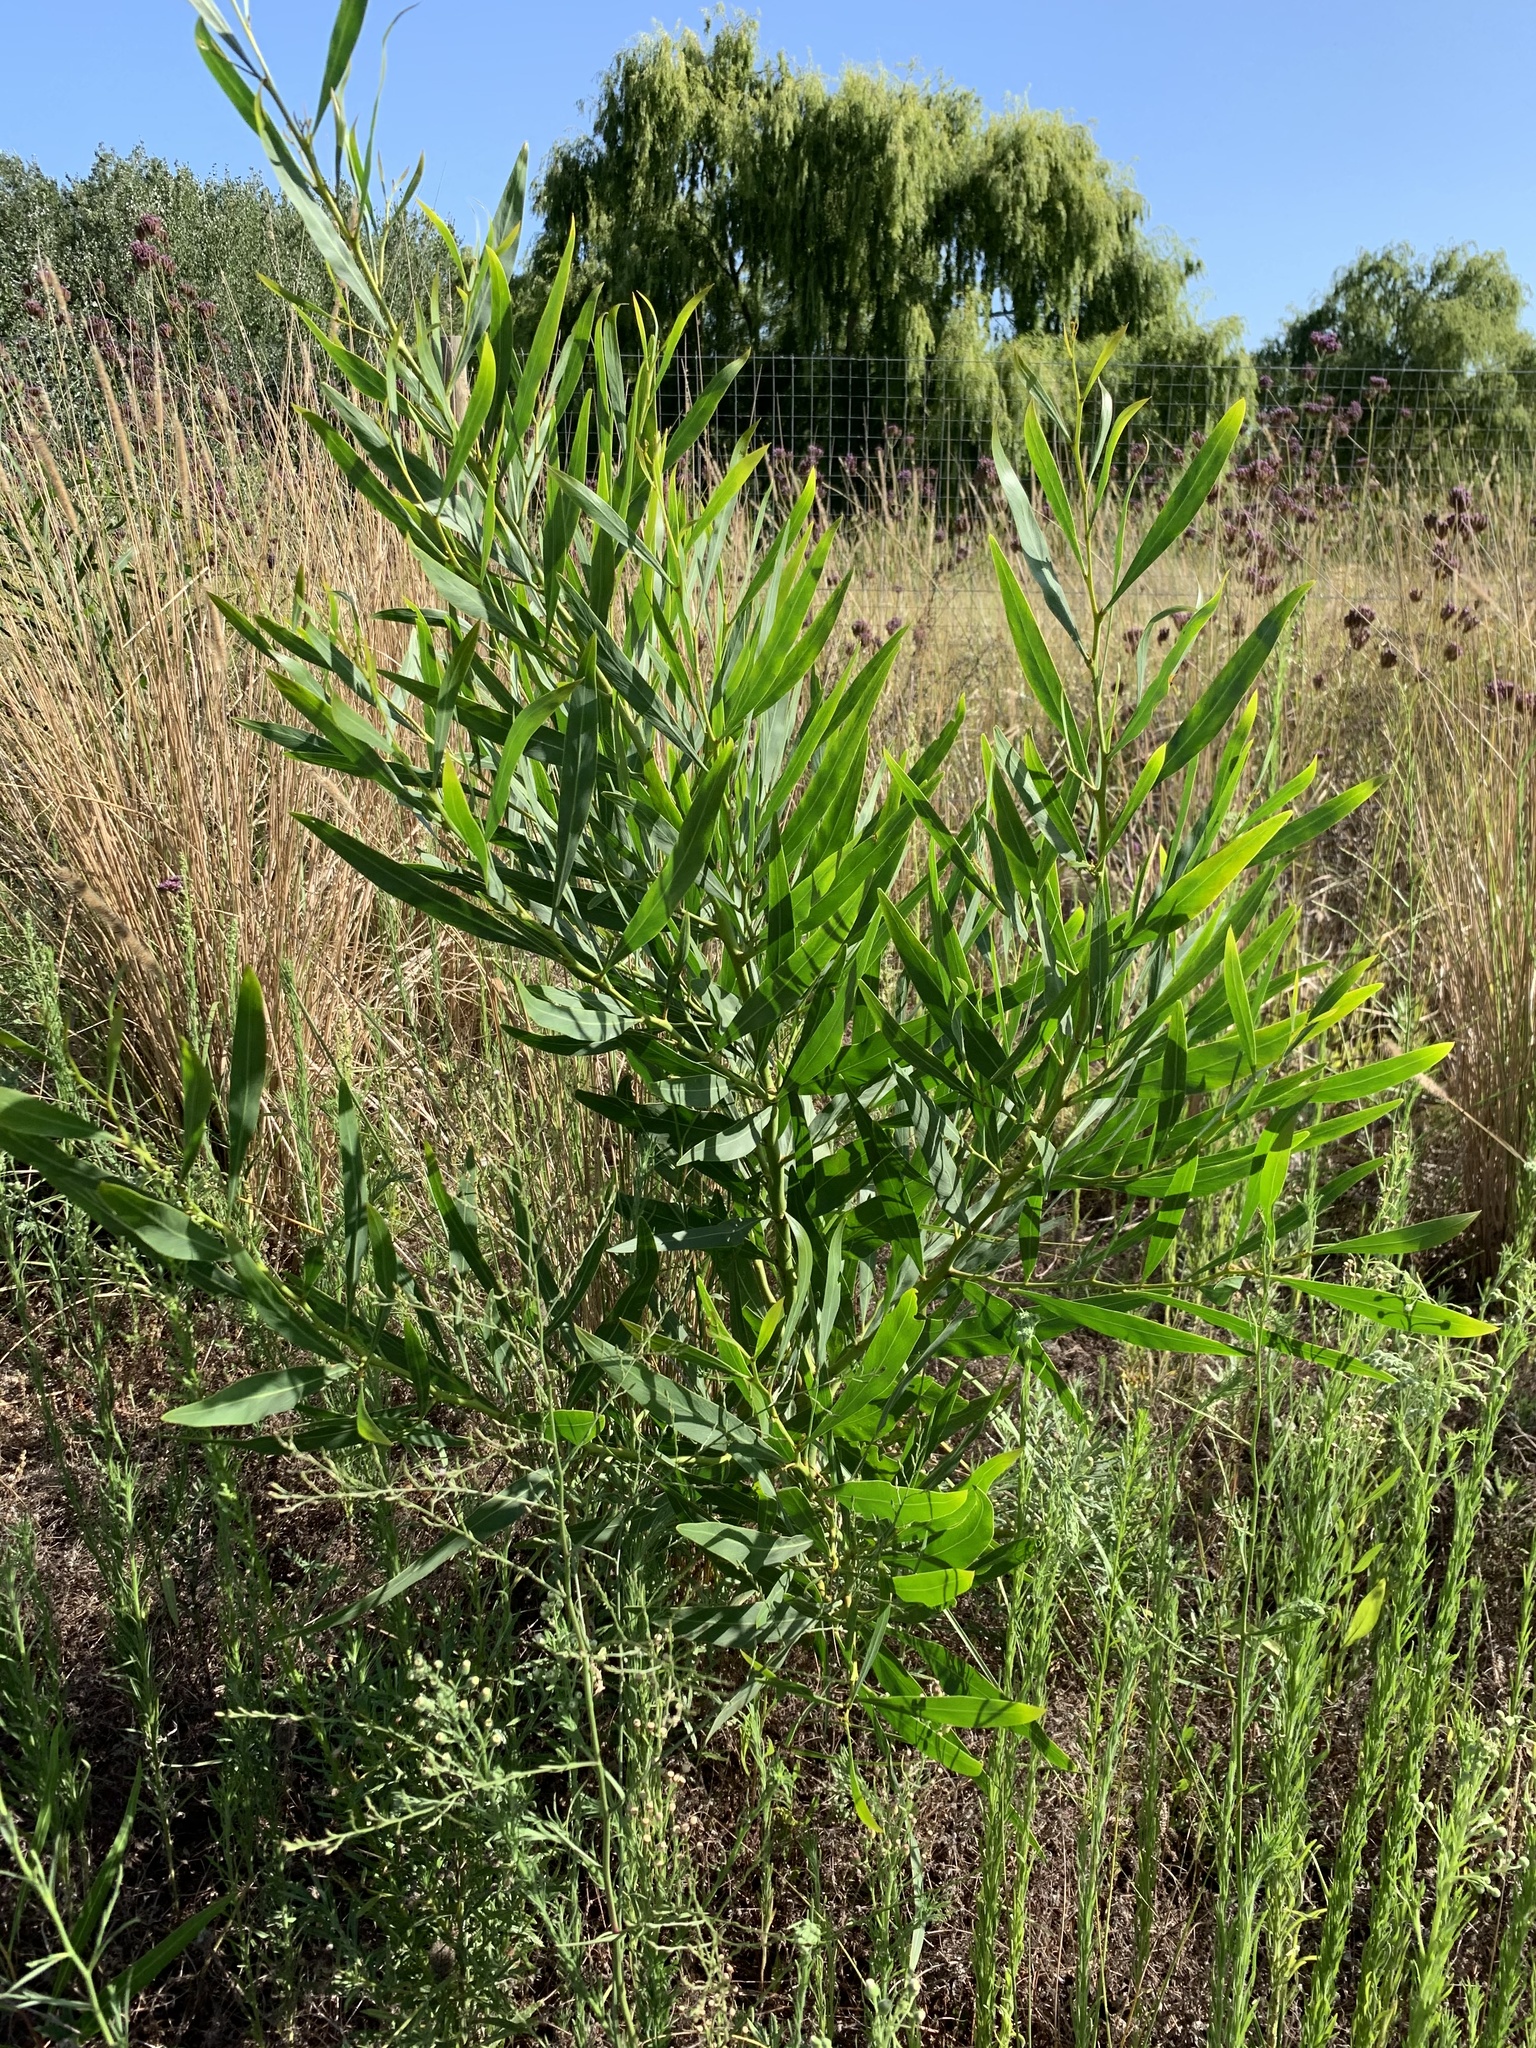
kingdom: Plantae
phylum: Tracheophyta
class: Magnoliopsida
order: Fabales
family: Fabaceae
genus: Acacia
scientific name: Acacia saligna
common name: Orange wattle
